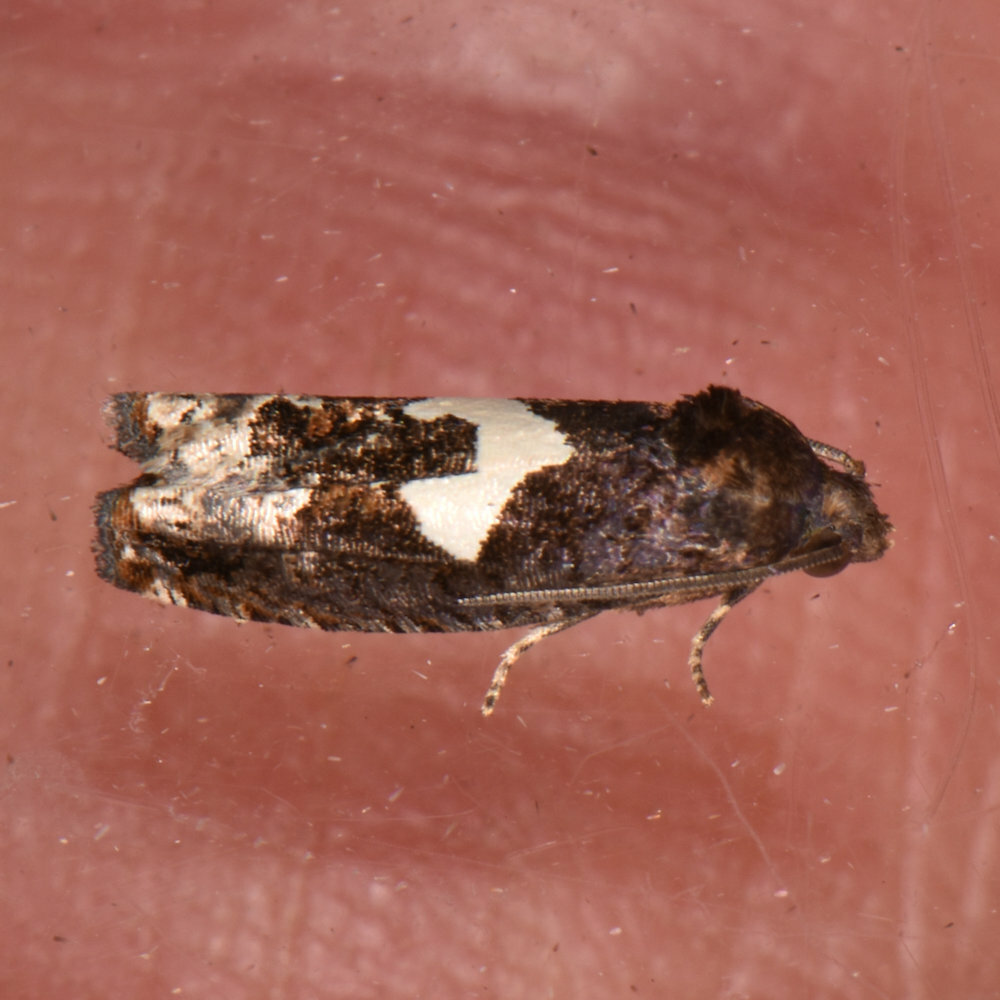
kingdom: Animalia
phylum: Arthropoda
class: Insecta
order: Lepidoptera
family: Tortricidae
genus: Epiblema
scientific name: Epiblema otiosana
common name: Bidens borer moth
